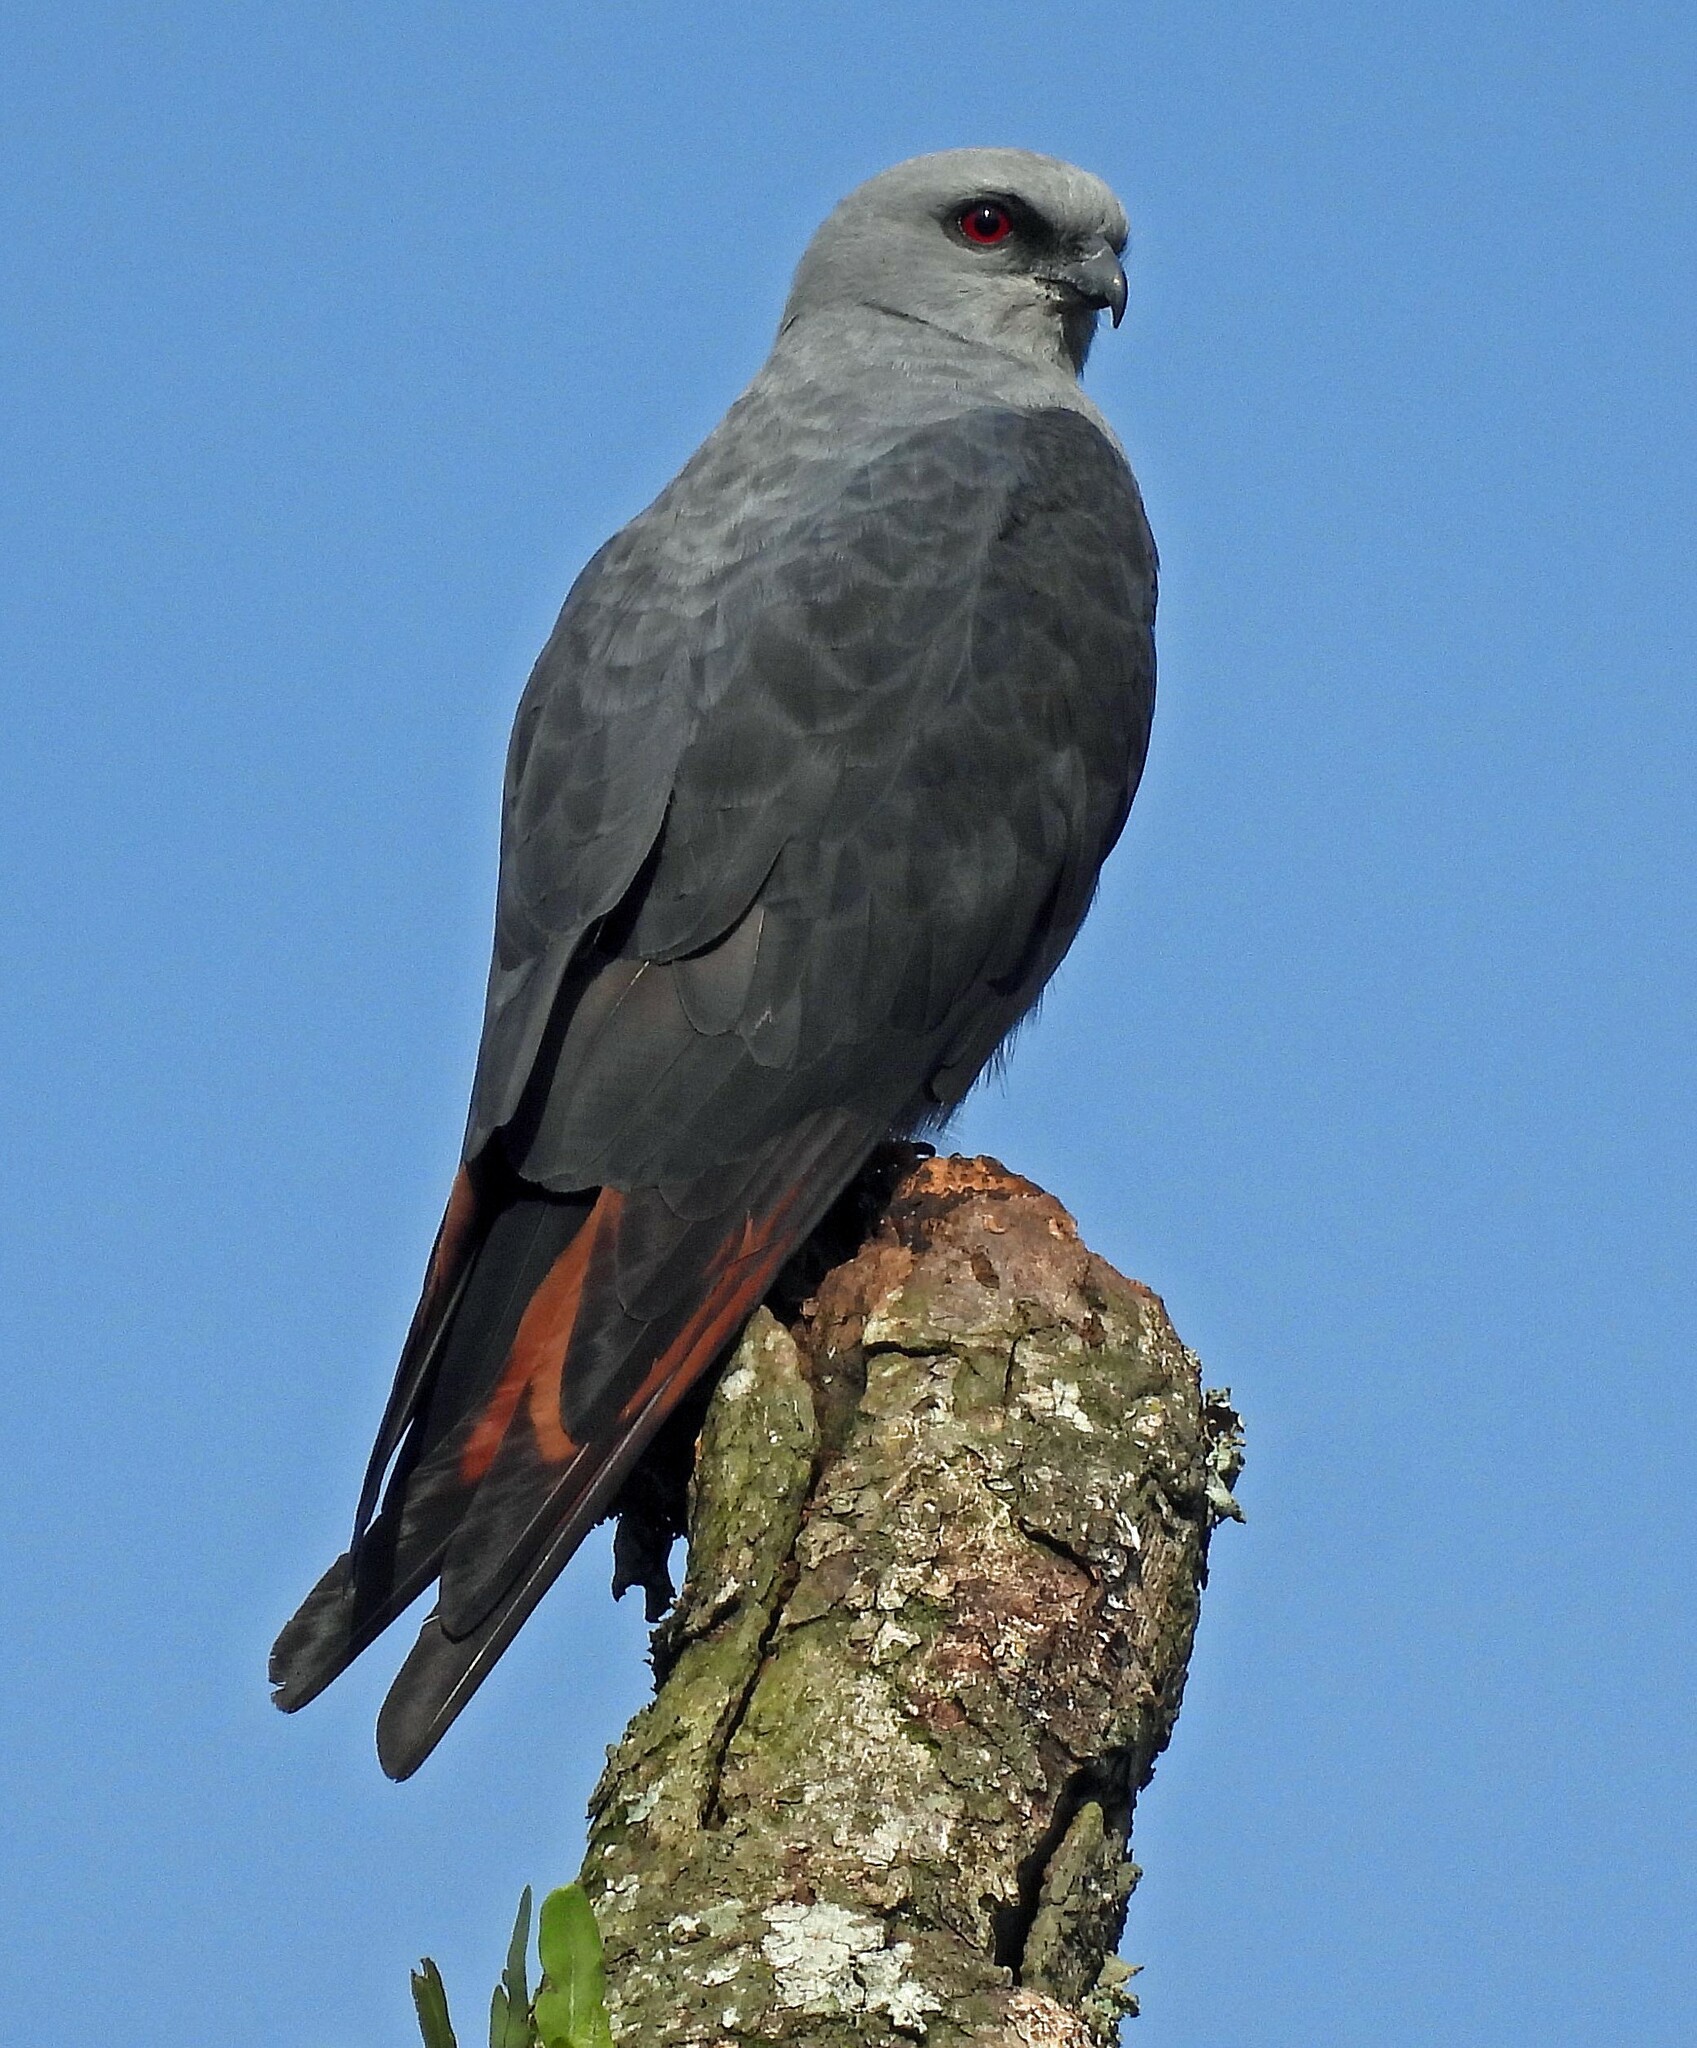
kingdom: Animalia
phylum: Chordata
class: Aves
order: Accipitriformes
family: Accipitridae
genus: Ictinia
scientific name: Ictinia plumbea
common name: Plumbeous kite
